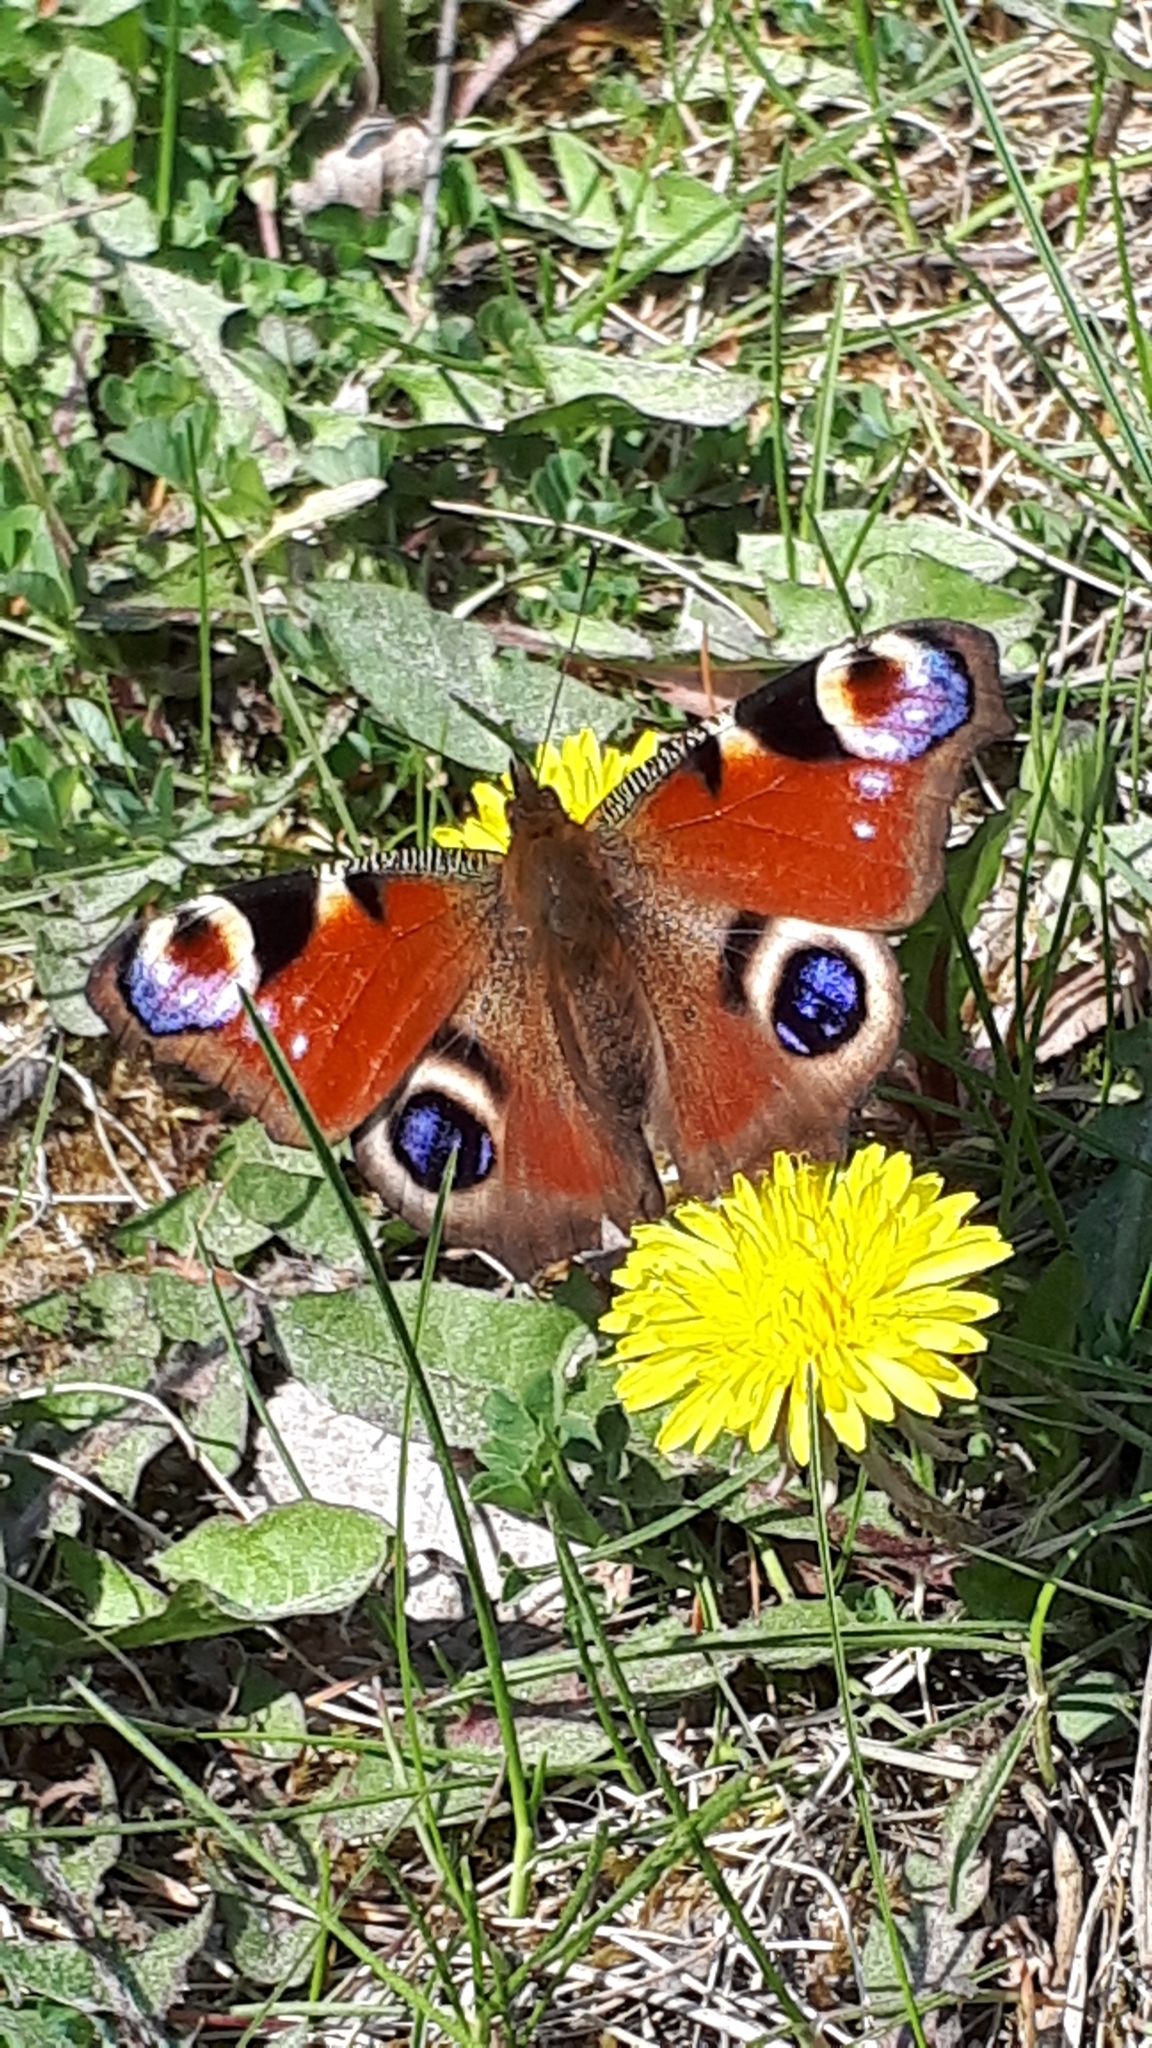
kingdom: Animalia
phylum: Arthropoda
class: Insecta
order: Lepidoptera
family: Nymphalidae
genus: Aglais
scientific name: Aglais io
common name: Peacock
